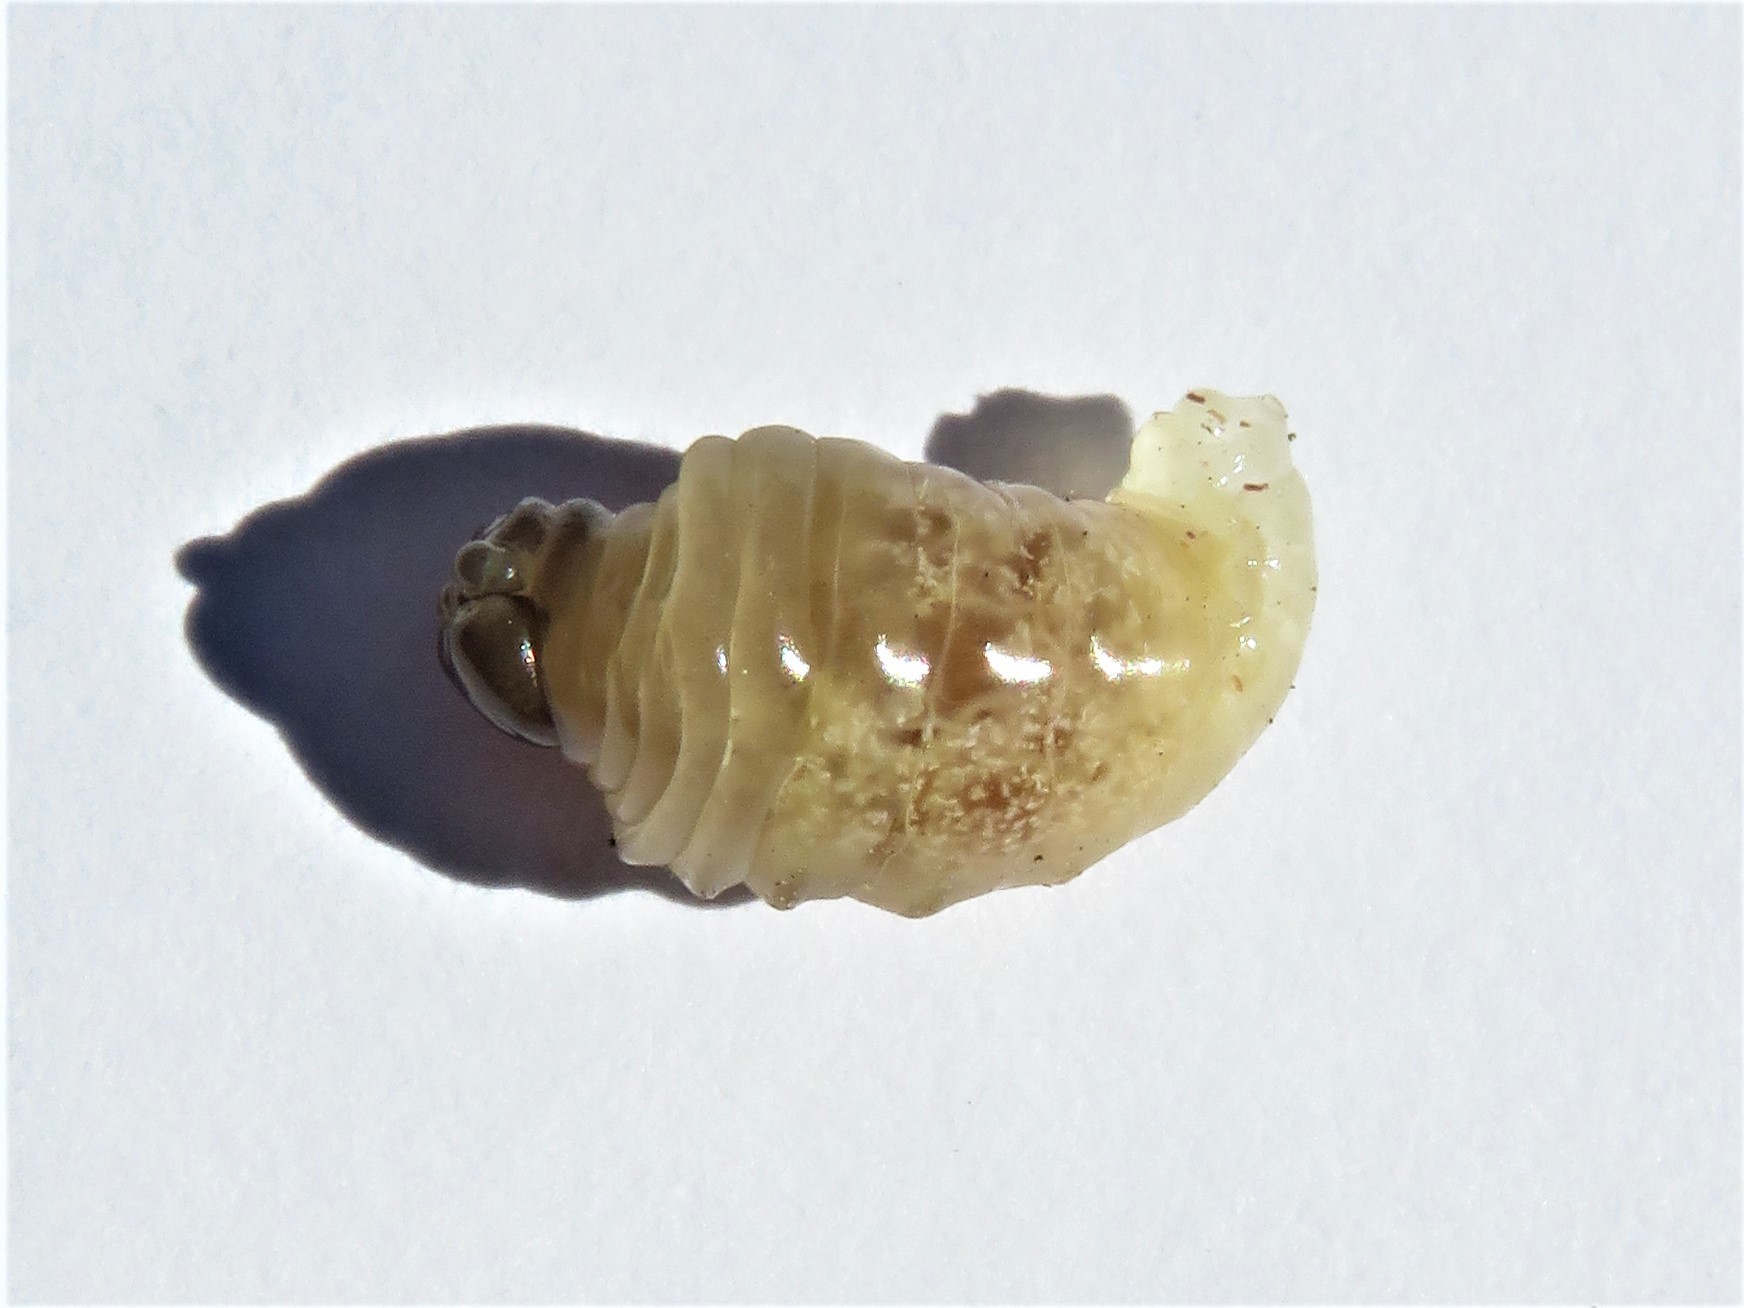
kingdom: Animalia
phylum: Arthropoda
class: Insecta
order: Hymenoptera
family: Eumenidae
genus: Polistes
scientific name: Polistes exclamans
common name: Paper wasp
